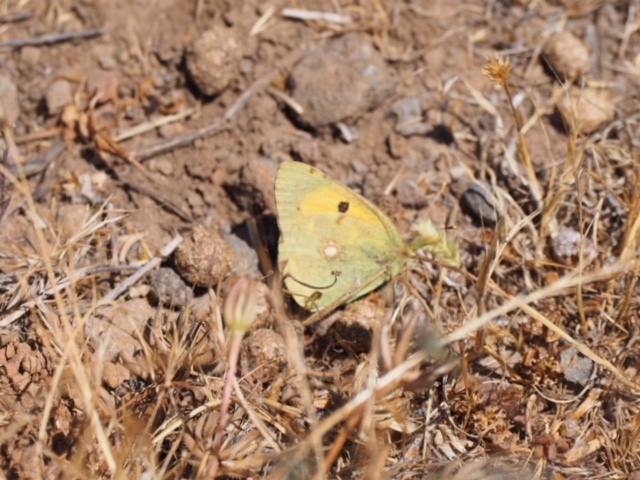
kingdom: Animalia
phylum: Arthropoda
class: Insecta
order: Lepidoptera
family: Pieridae
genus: Colias
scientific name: Colias croceus
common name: Clouded yellow
